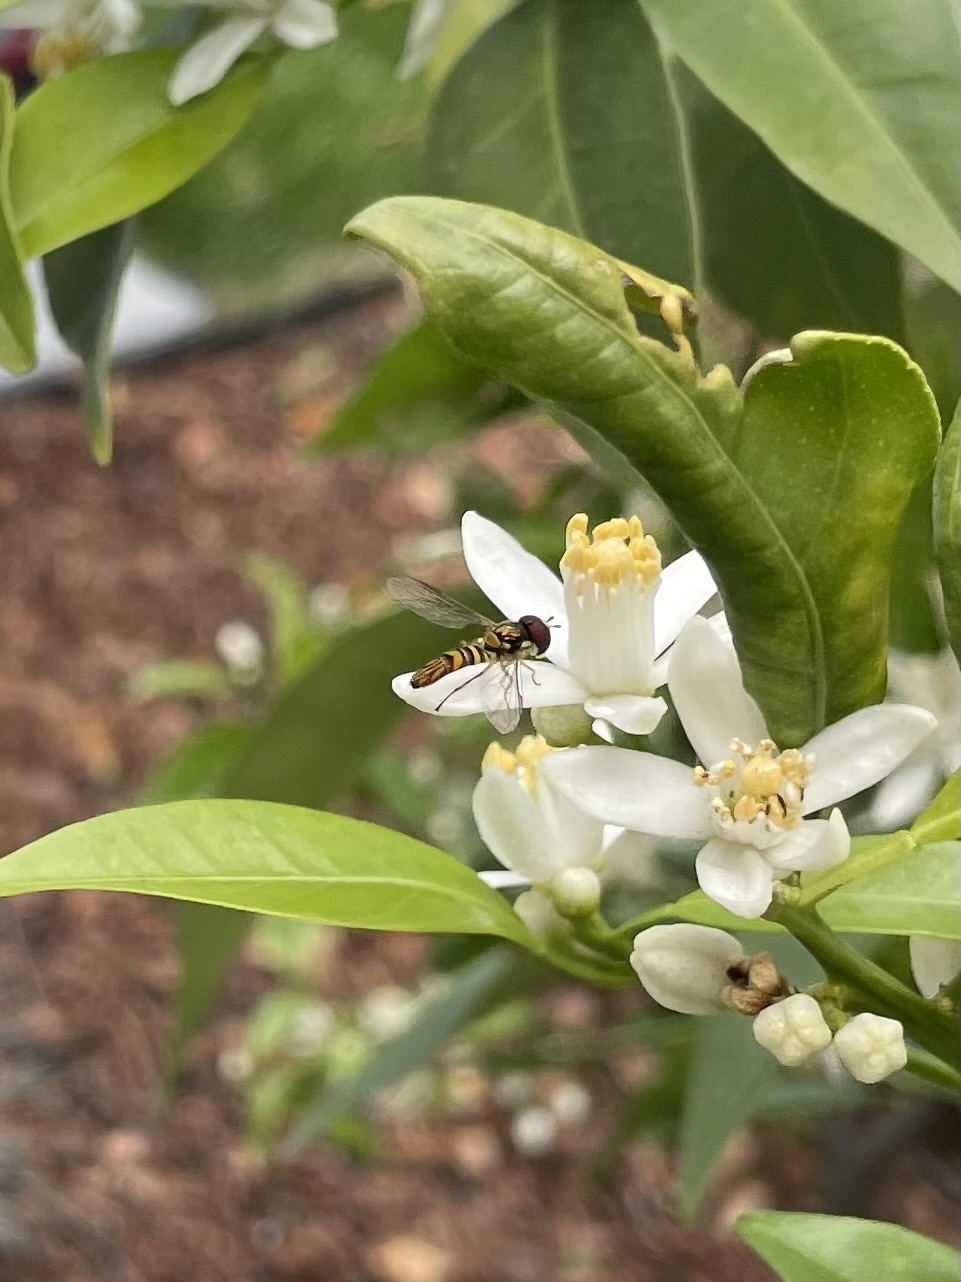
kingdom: Animalia
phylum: Arthropoda
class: Insecta
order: Diptera
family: Syrphidae
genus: Allograpta
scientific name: Allograpta obliqua
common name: Common oblique syrphid
